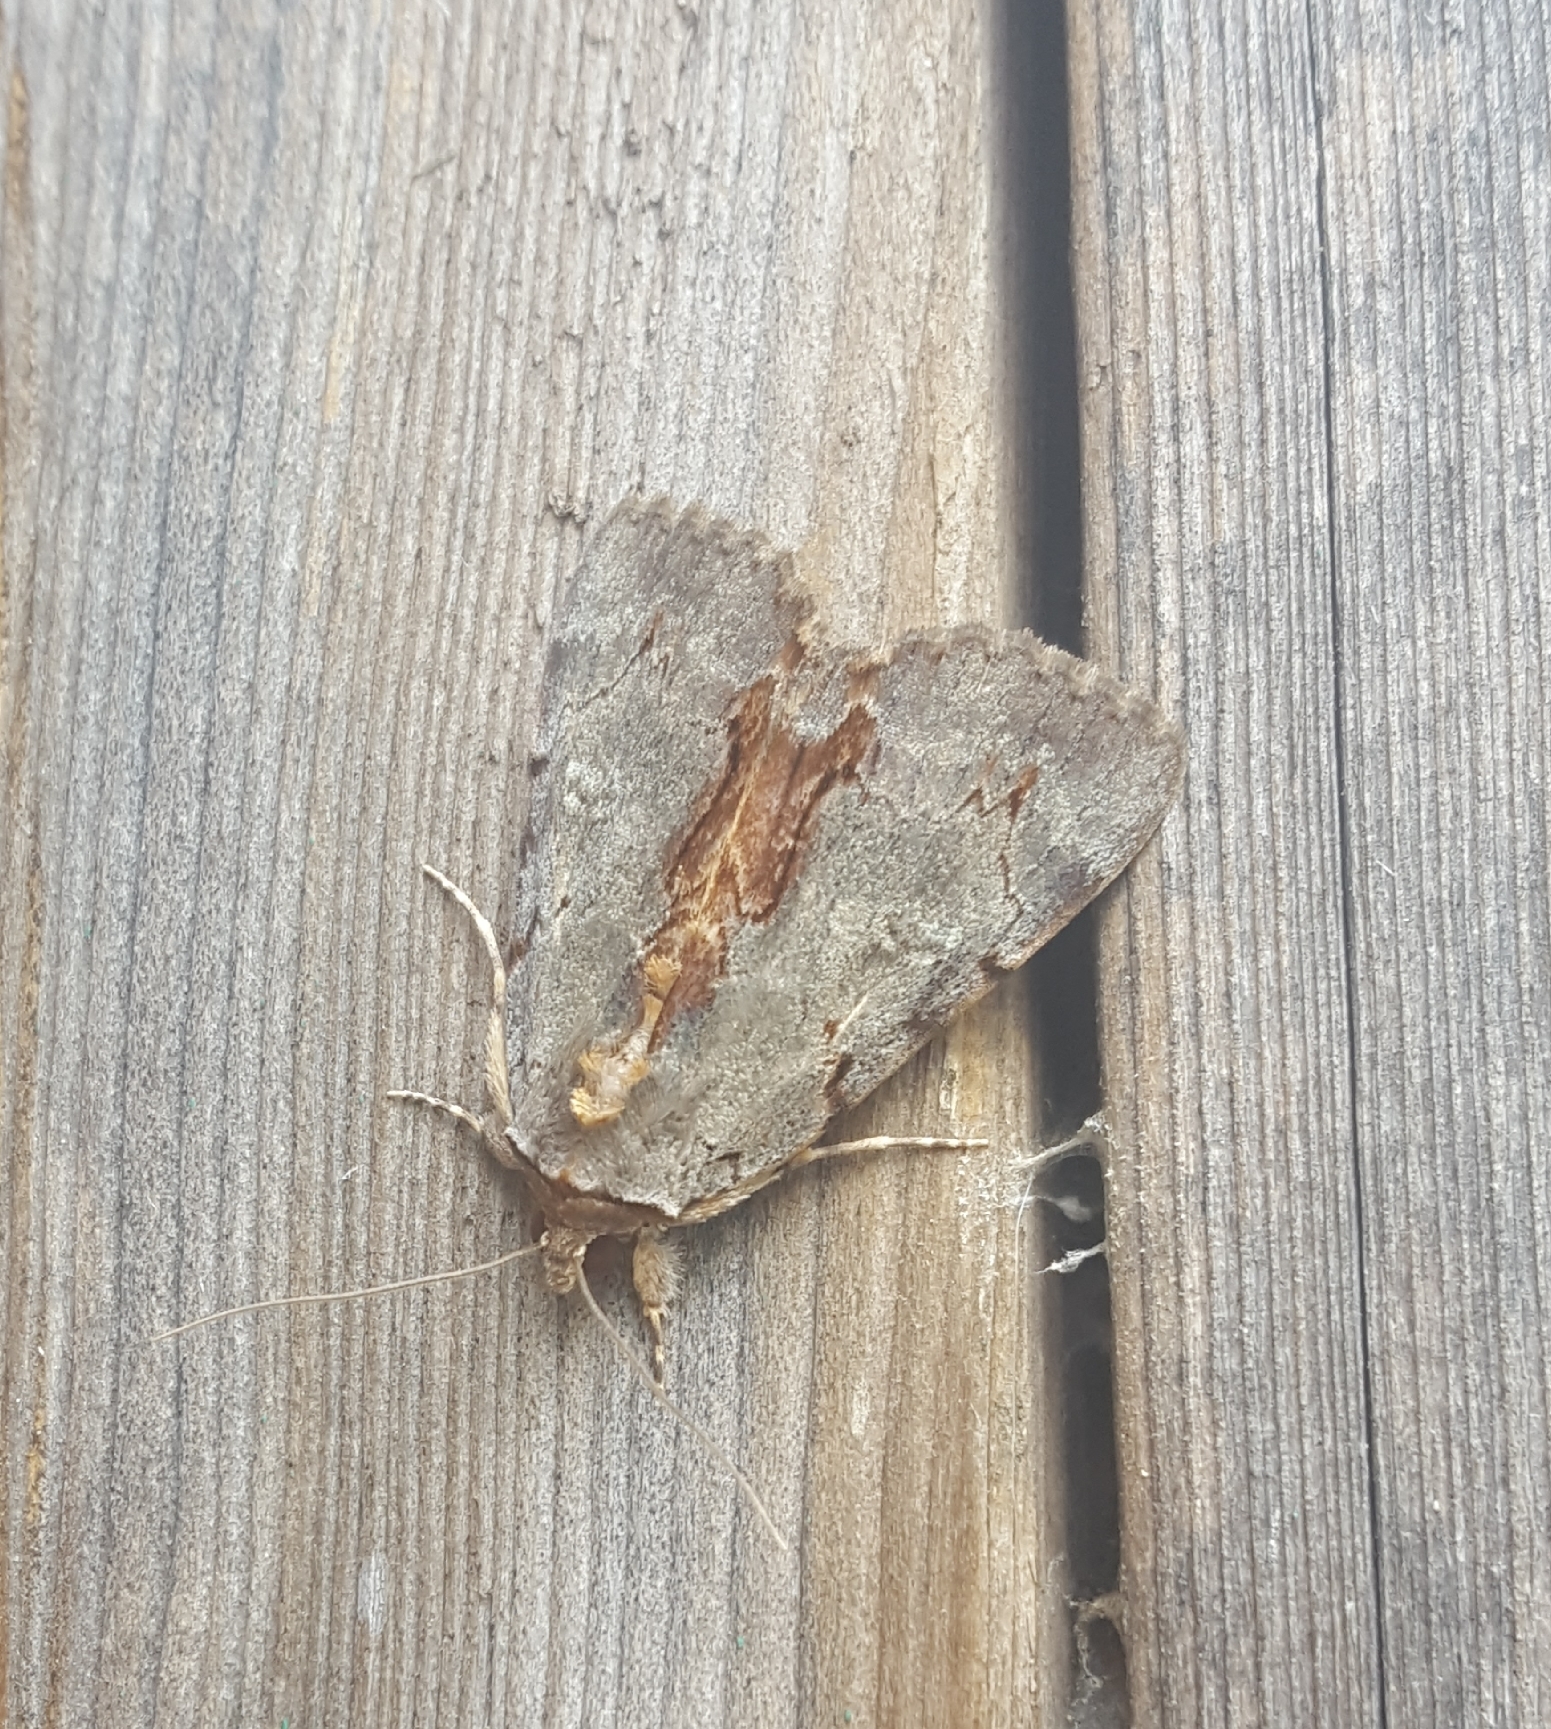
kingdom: Animalia
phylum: Arthropoda
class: Insecta
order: Lepidoptera
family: Erebidae
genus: Catocala
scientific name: Catocala grynea
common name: Woody underwing
